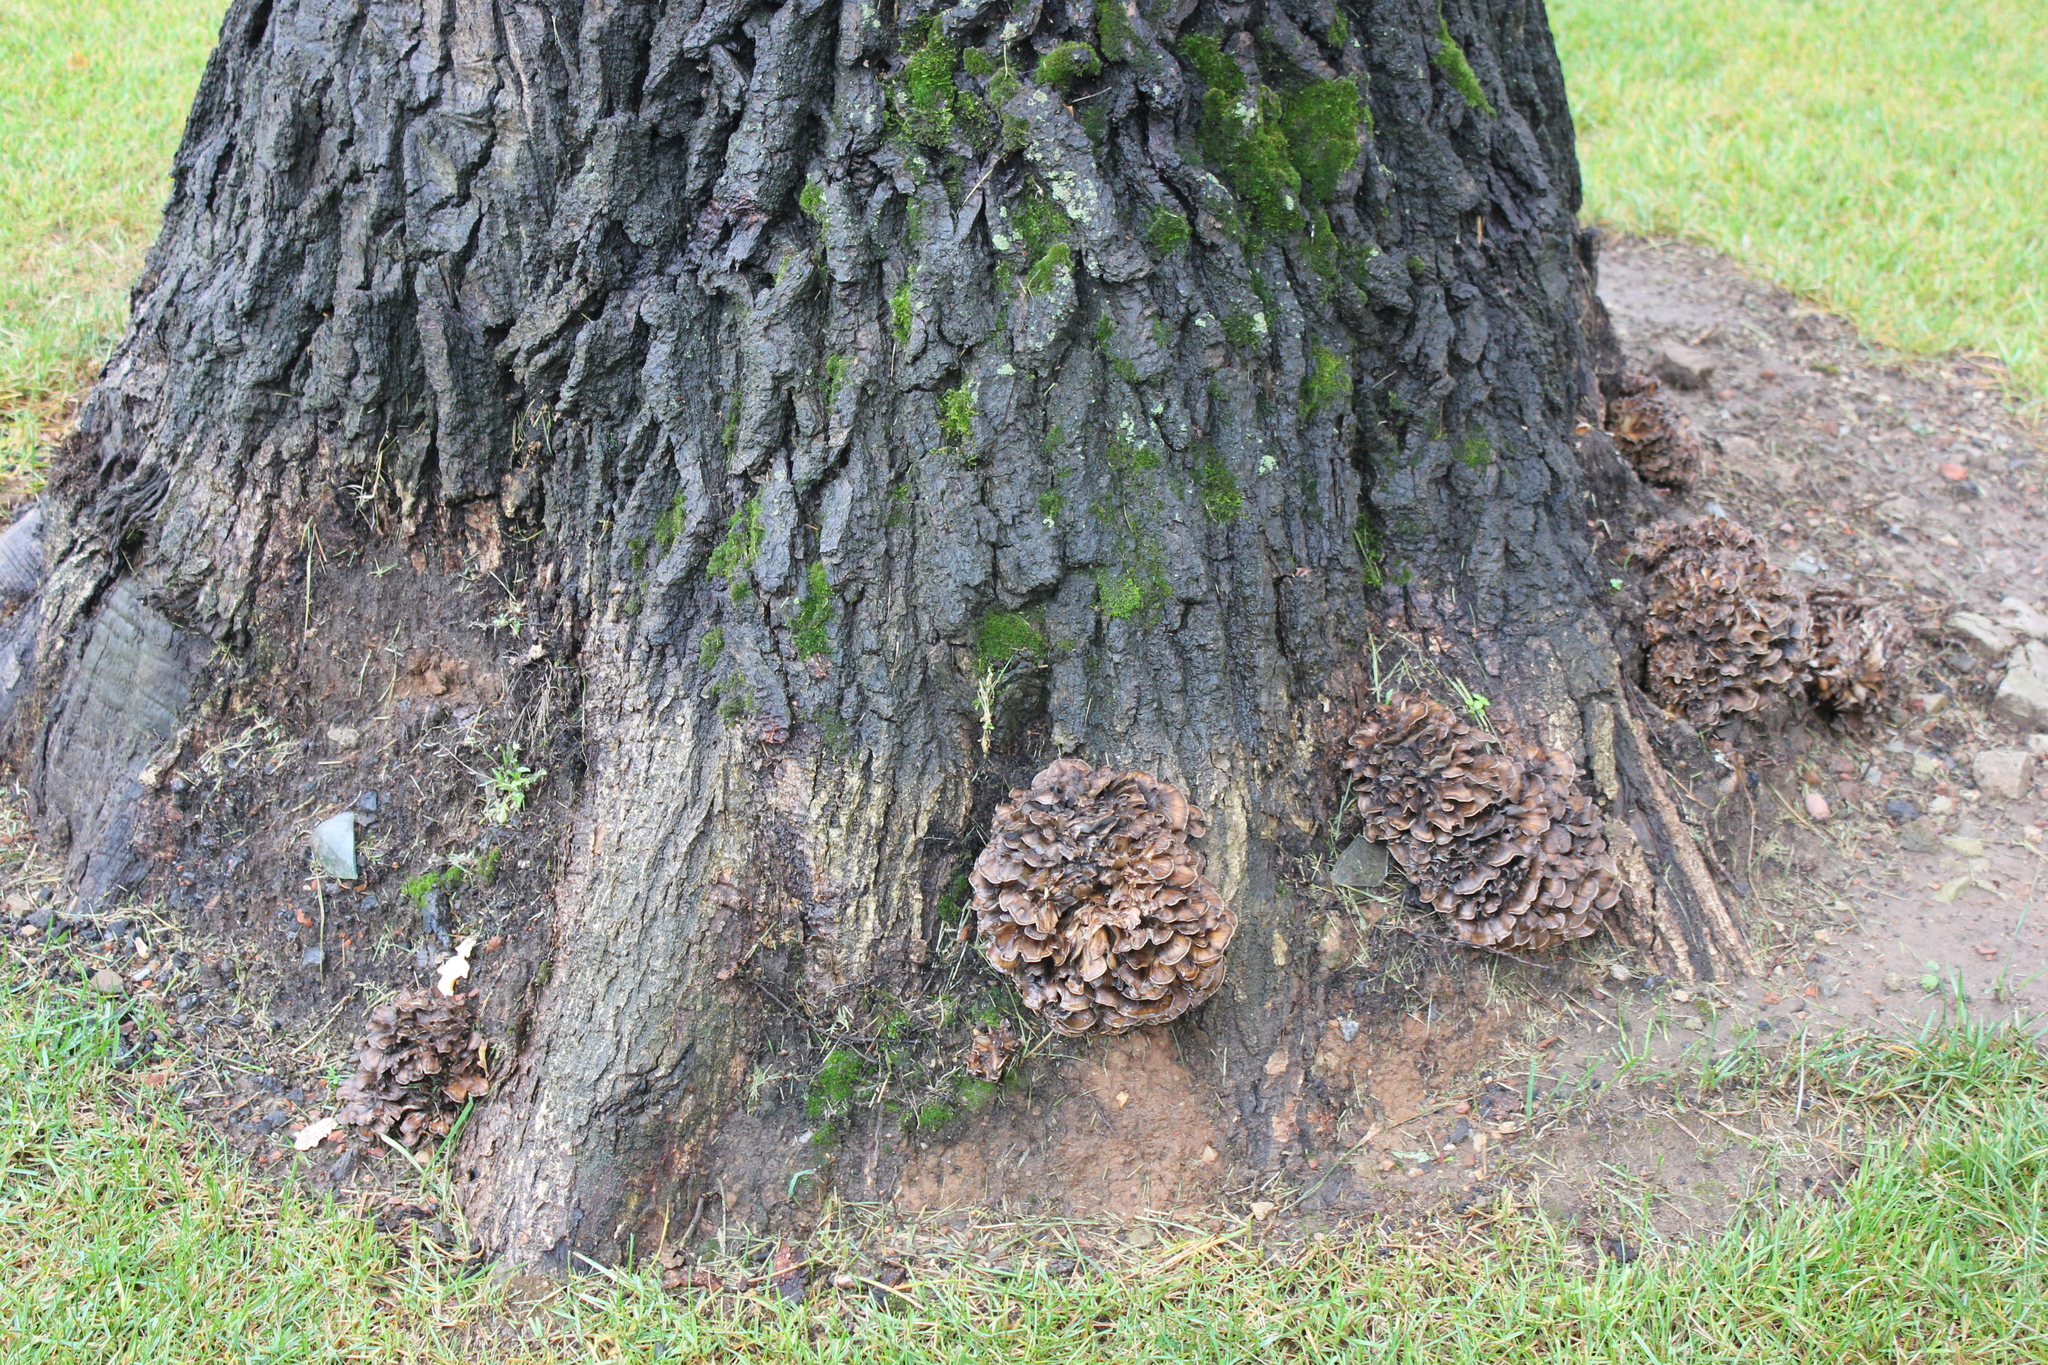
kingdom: Fungi
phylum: Basidiomycota
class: Agaricomycetes
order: Polyporales
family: Grifolaceae
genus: Grifola
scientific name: Grifola frondosa
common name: Hen of the woods
